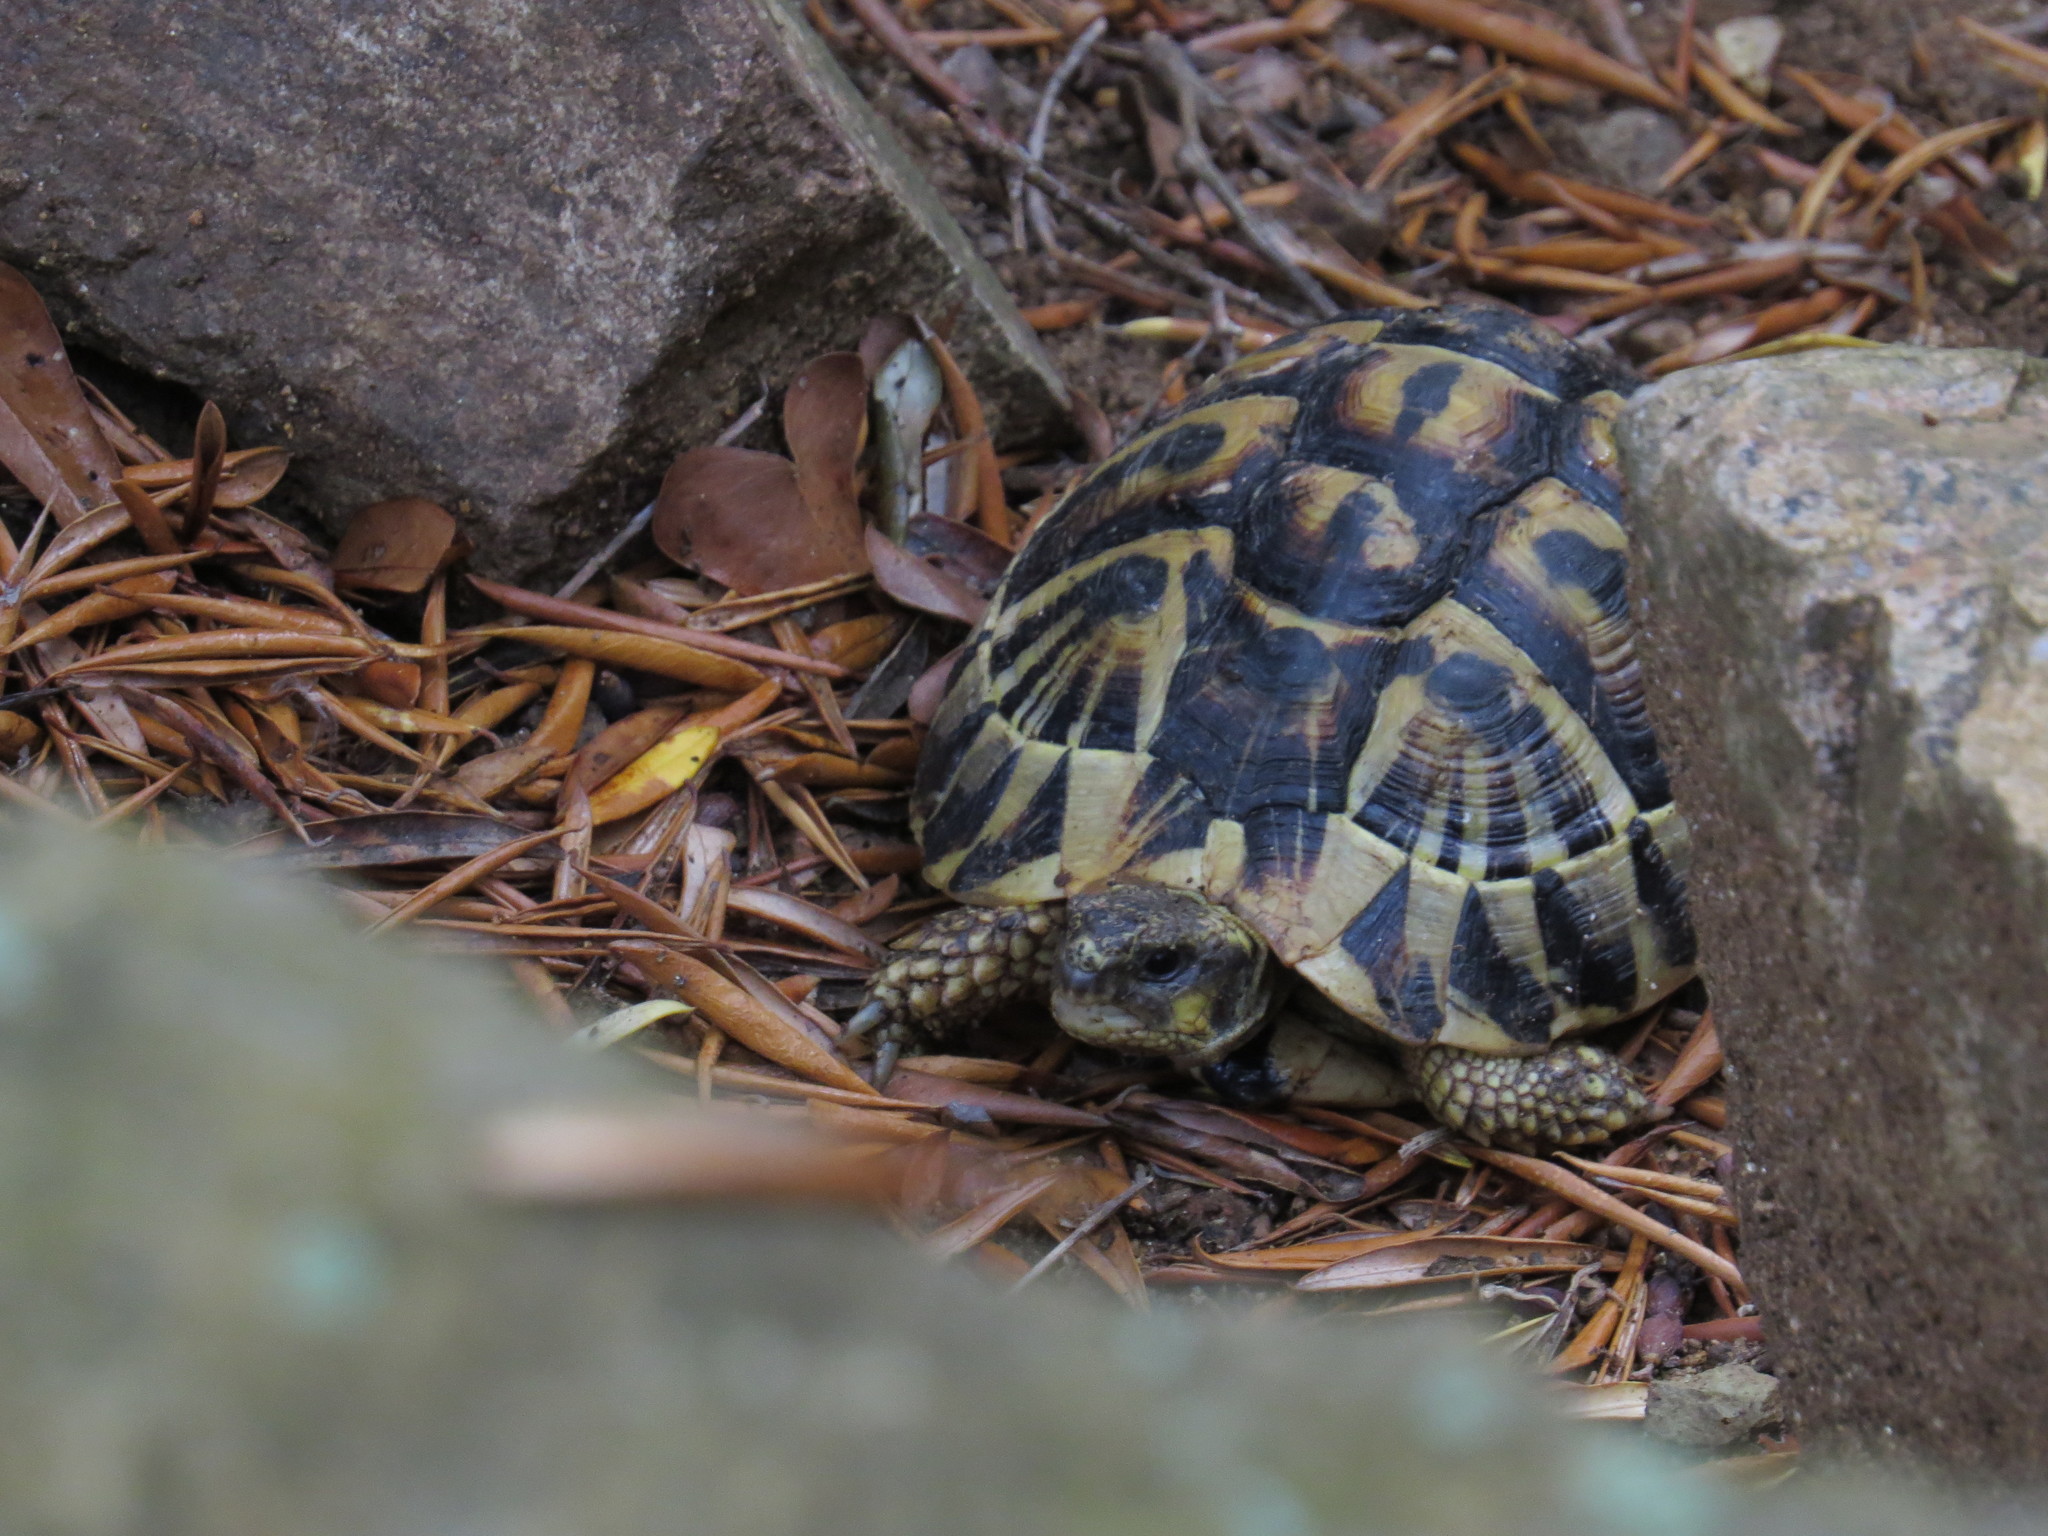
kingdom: Animalia
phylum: Chordata
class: Testudines
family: Testudinidae
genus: Testudo
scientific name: Testudo hermanni
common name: Hermann's tortoise
